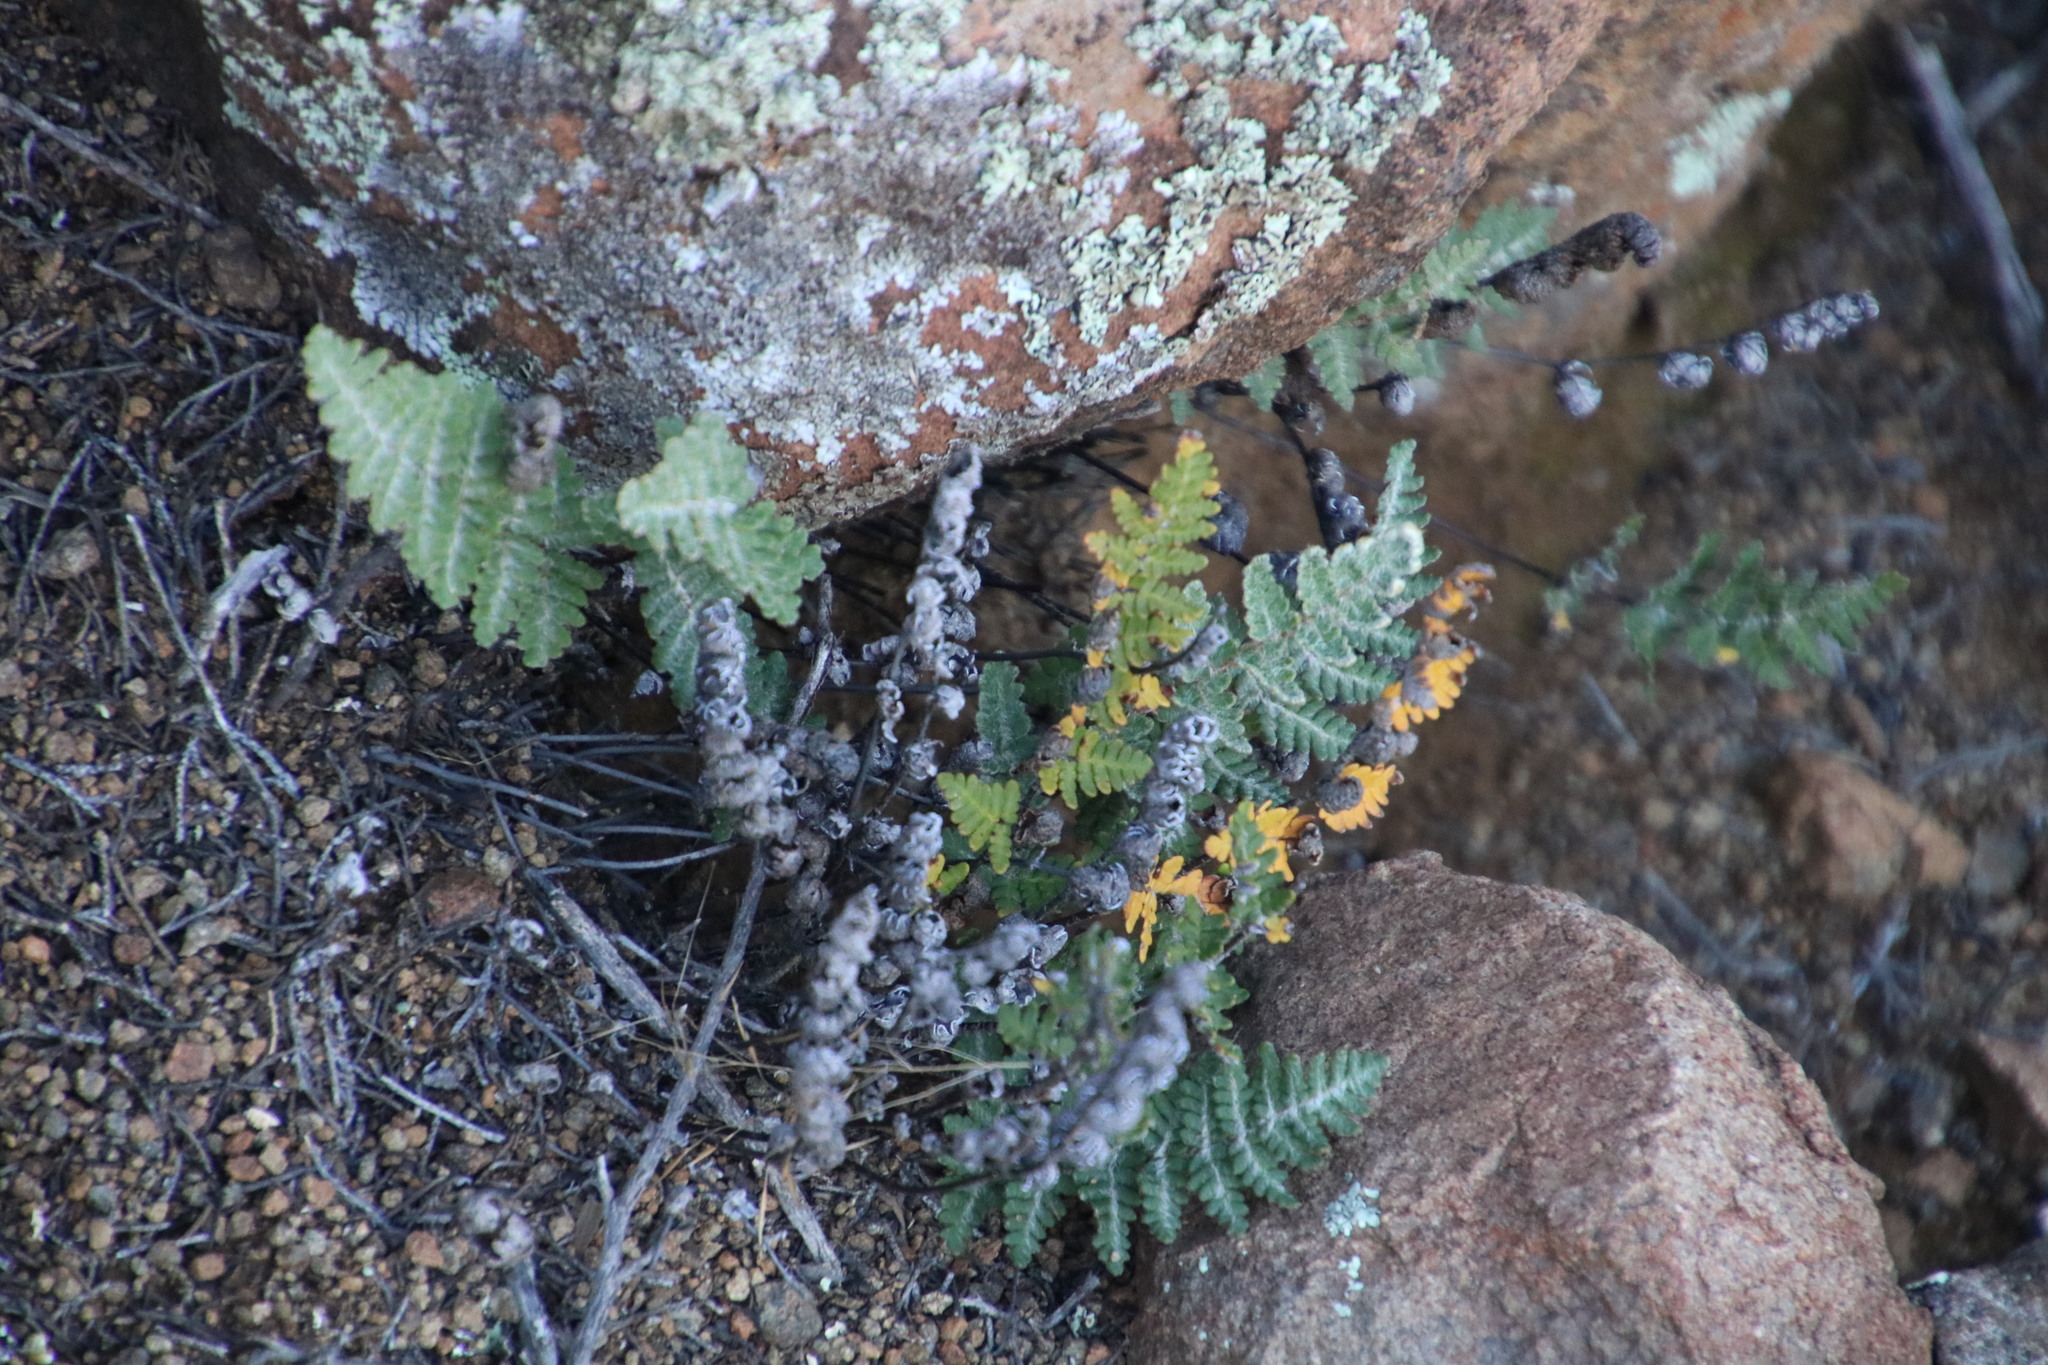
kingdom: Plantae
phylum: Tracheophyta
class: Polypodiopsida
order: Polypodiales
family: Pteridaceae
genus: Cheilanthes
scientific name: Cheilanthes eckloniana
